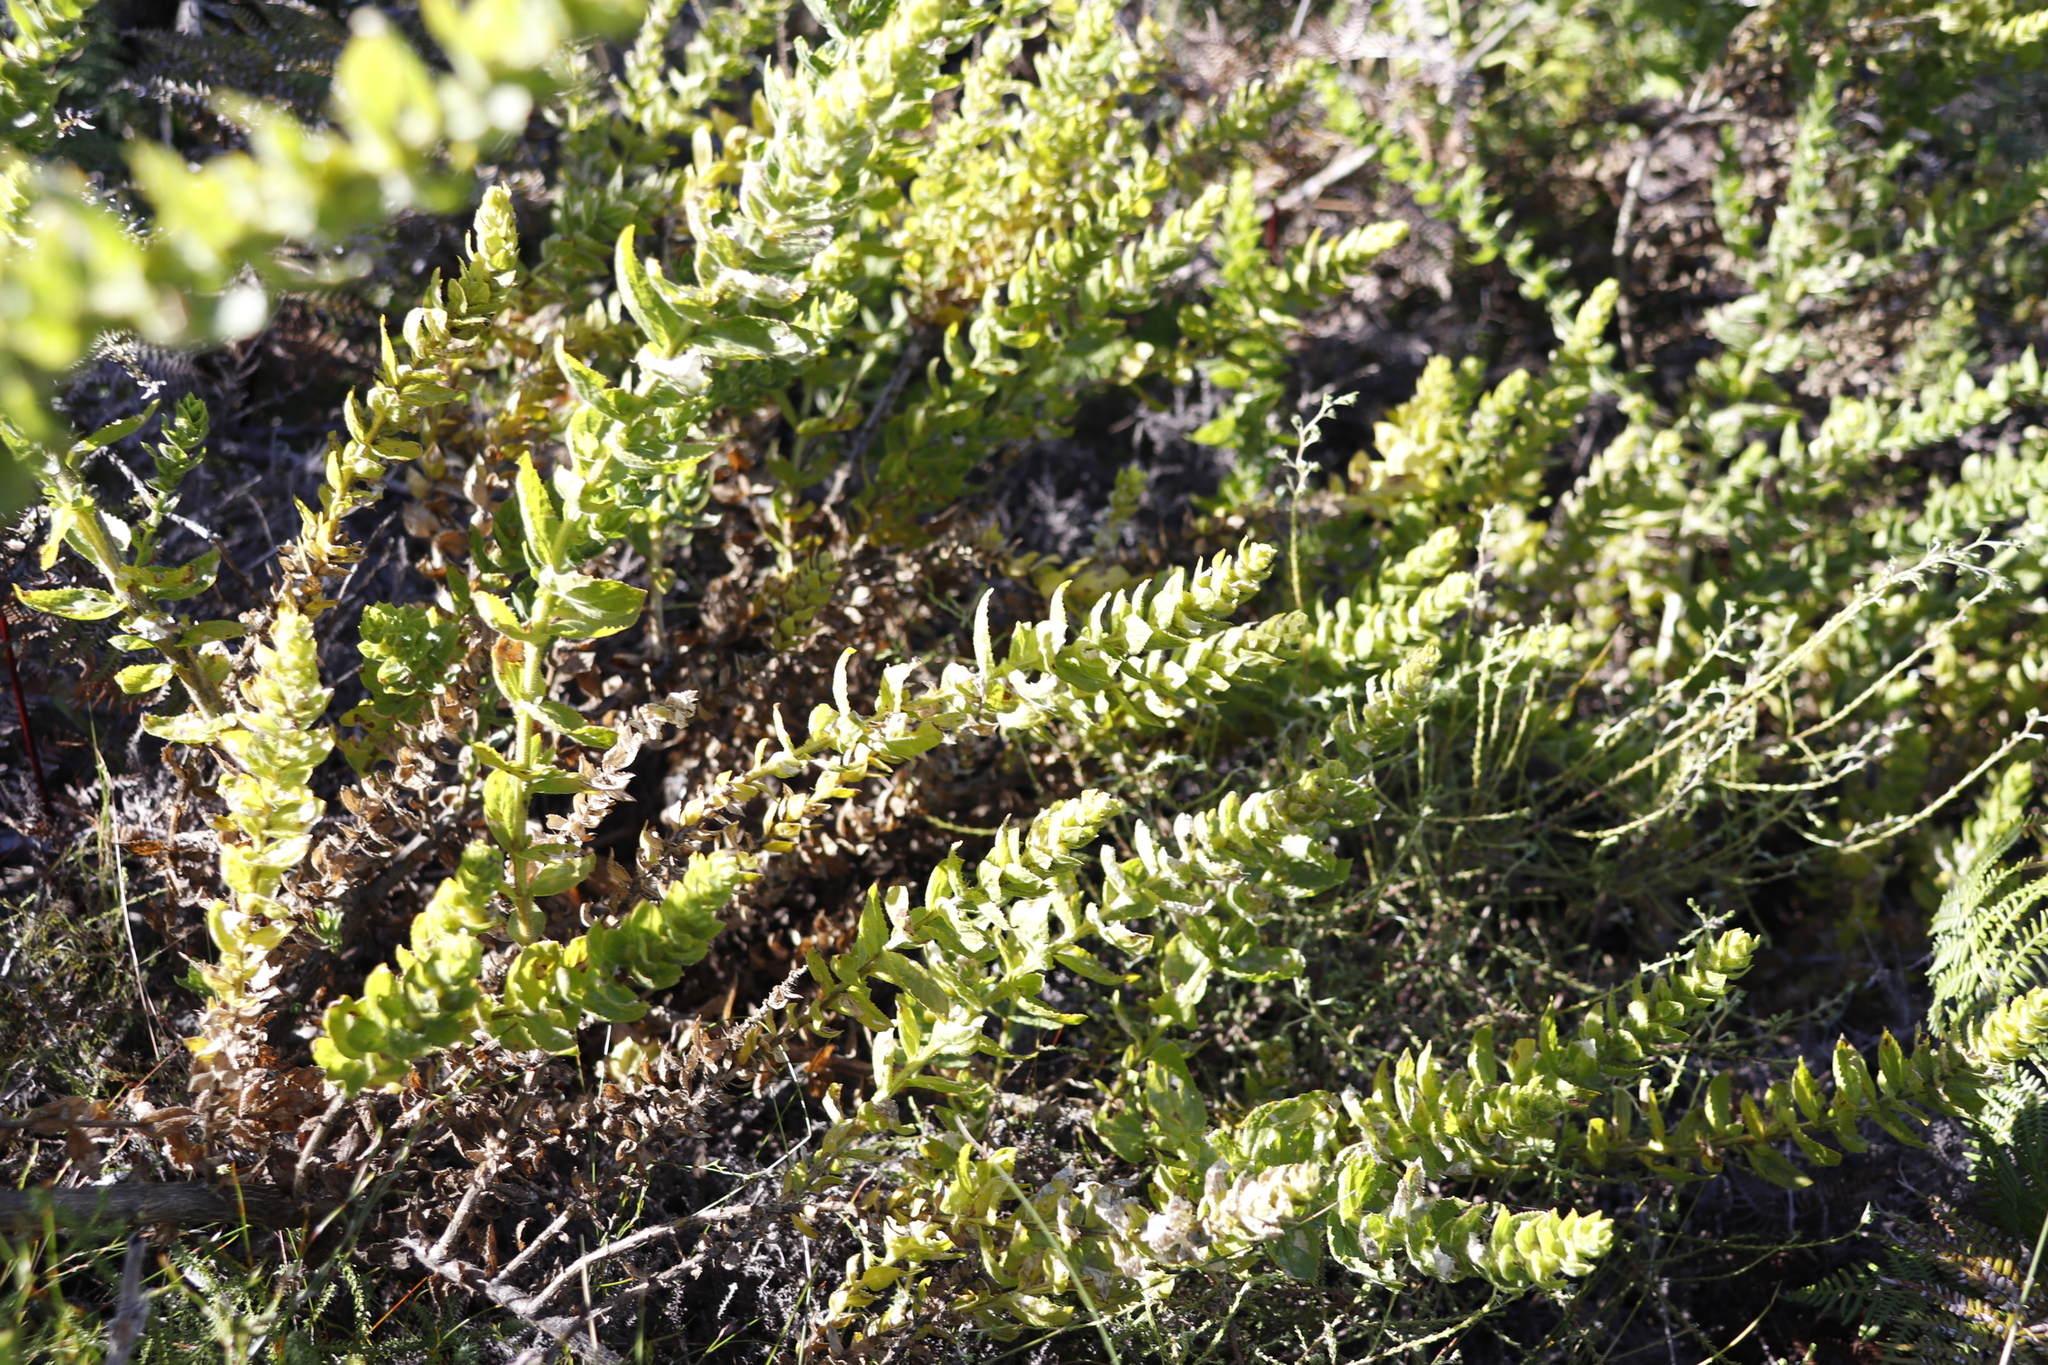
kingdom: Plantae
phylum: Tracheophyta
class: Magnoliopsida
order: Lamiales
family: Scrophulariaceae
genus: Oftia
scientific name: Oftia africana
